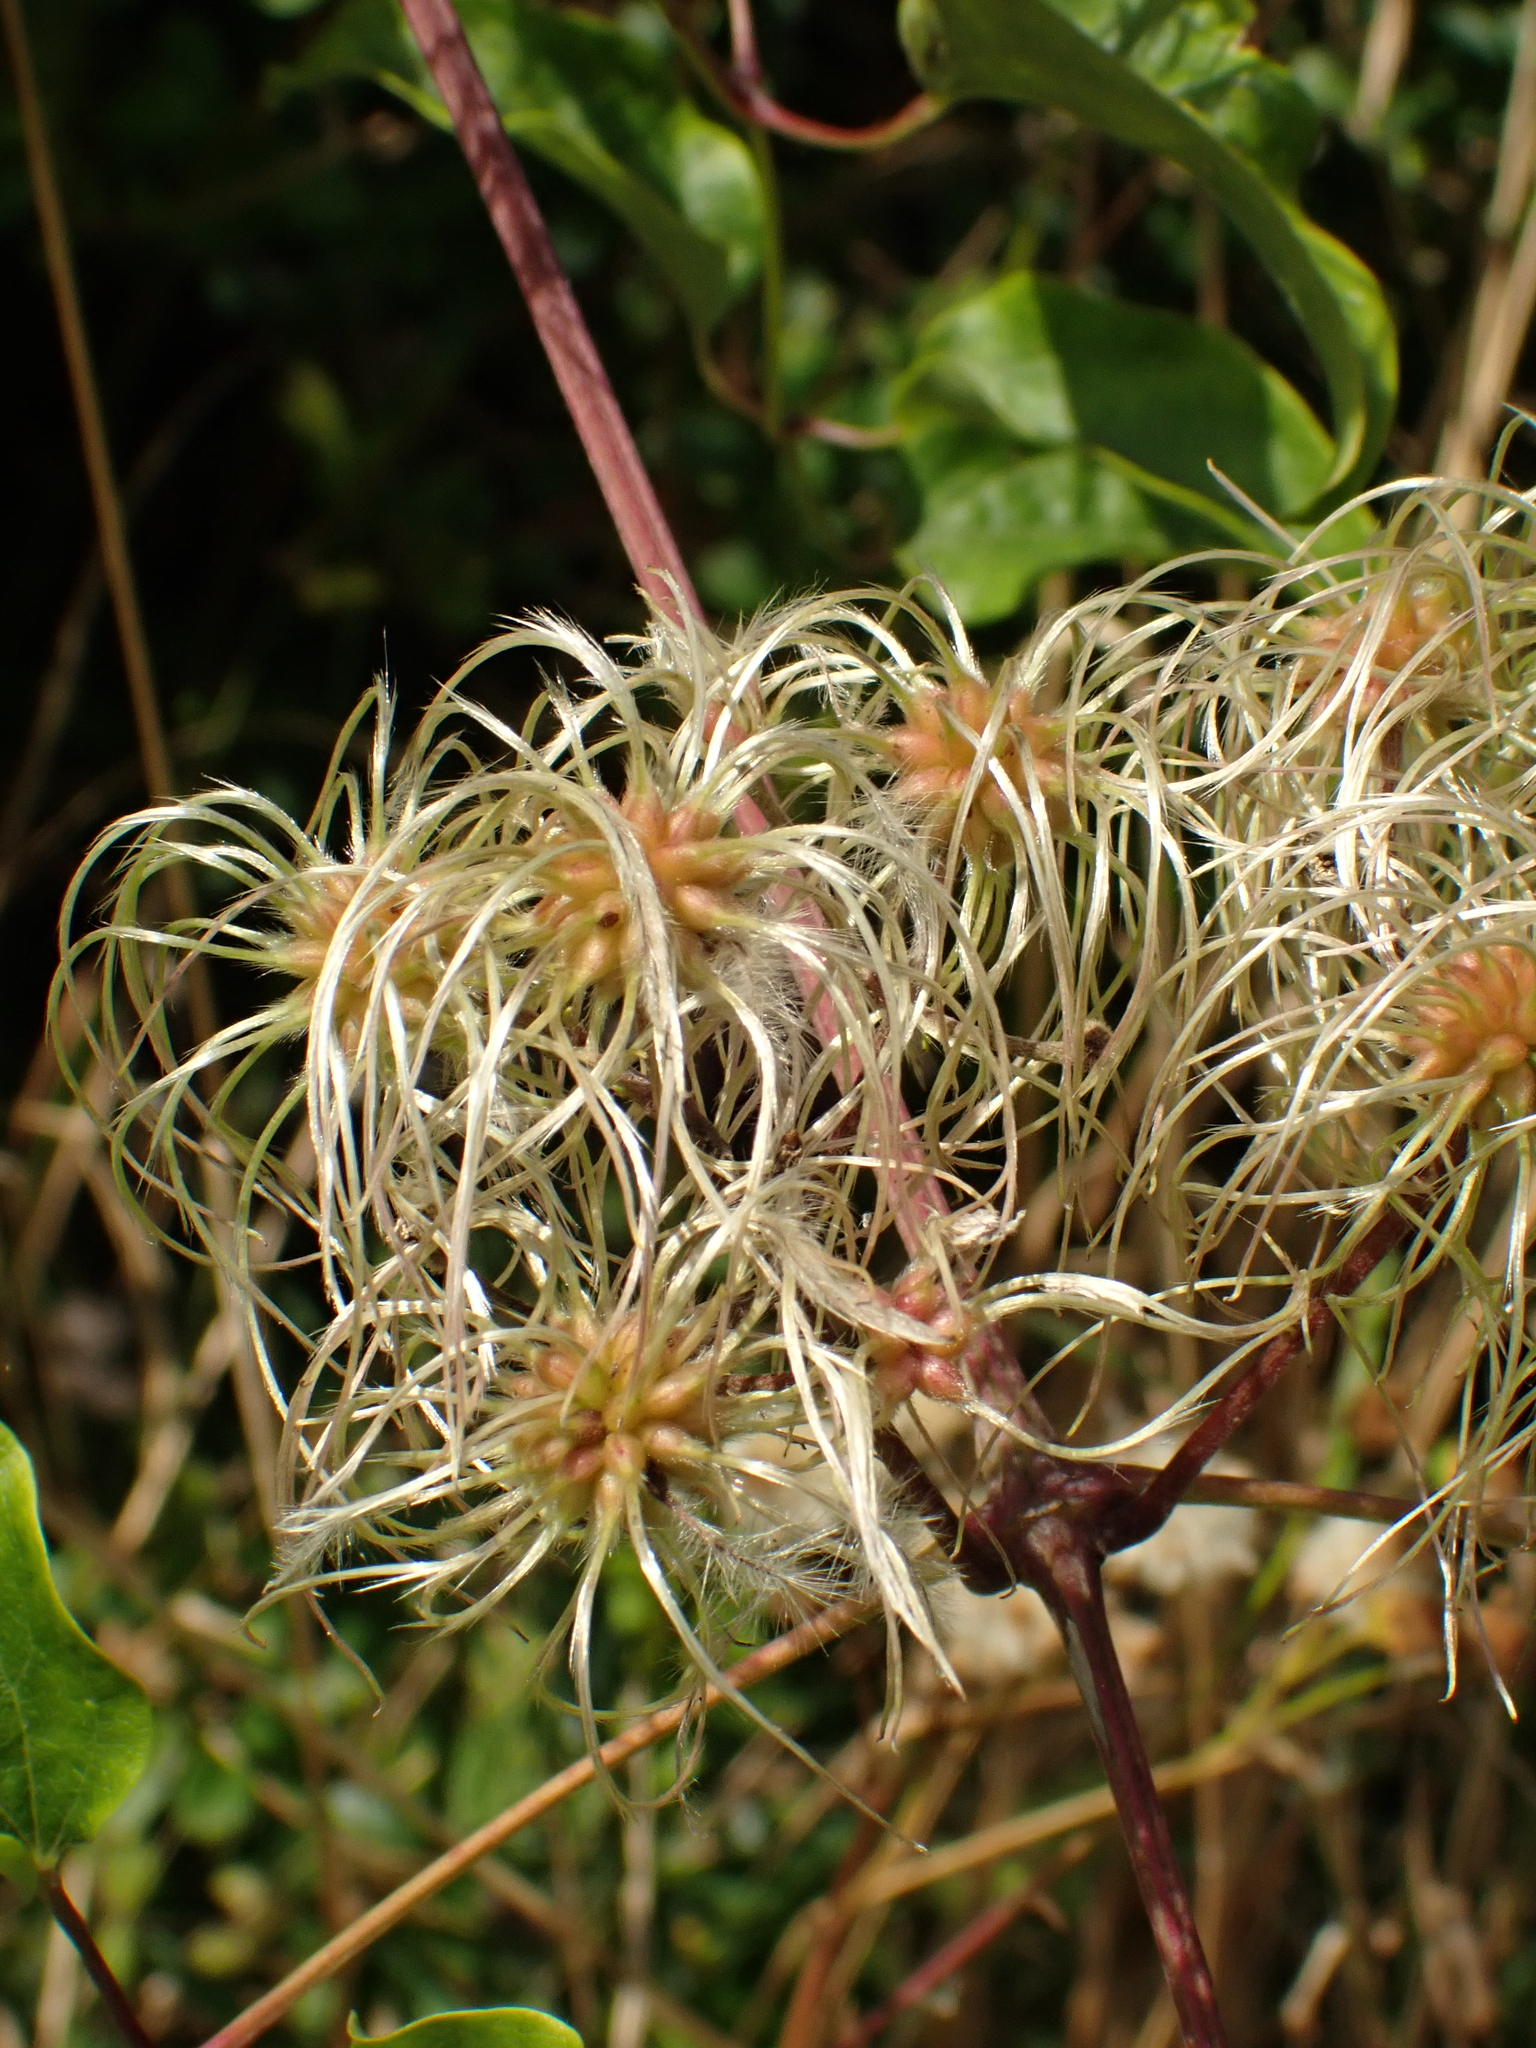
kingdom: Plantae
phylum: Tracheophyta
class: Magnoliopsida
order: Ranunculales
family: Ranunculaceae
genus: Clematis
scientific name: Clematis vitalba
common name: Evergreen clematis
